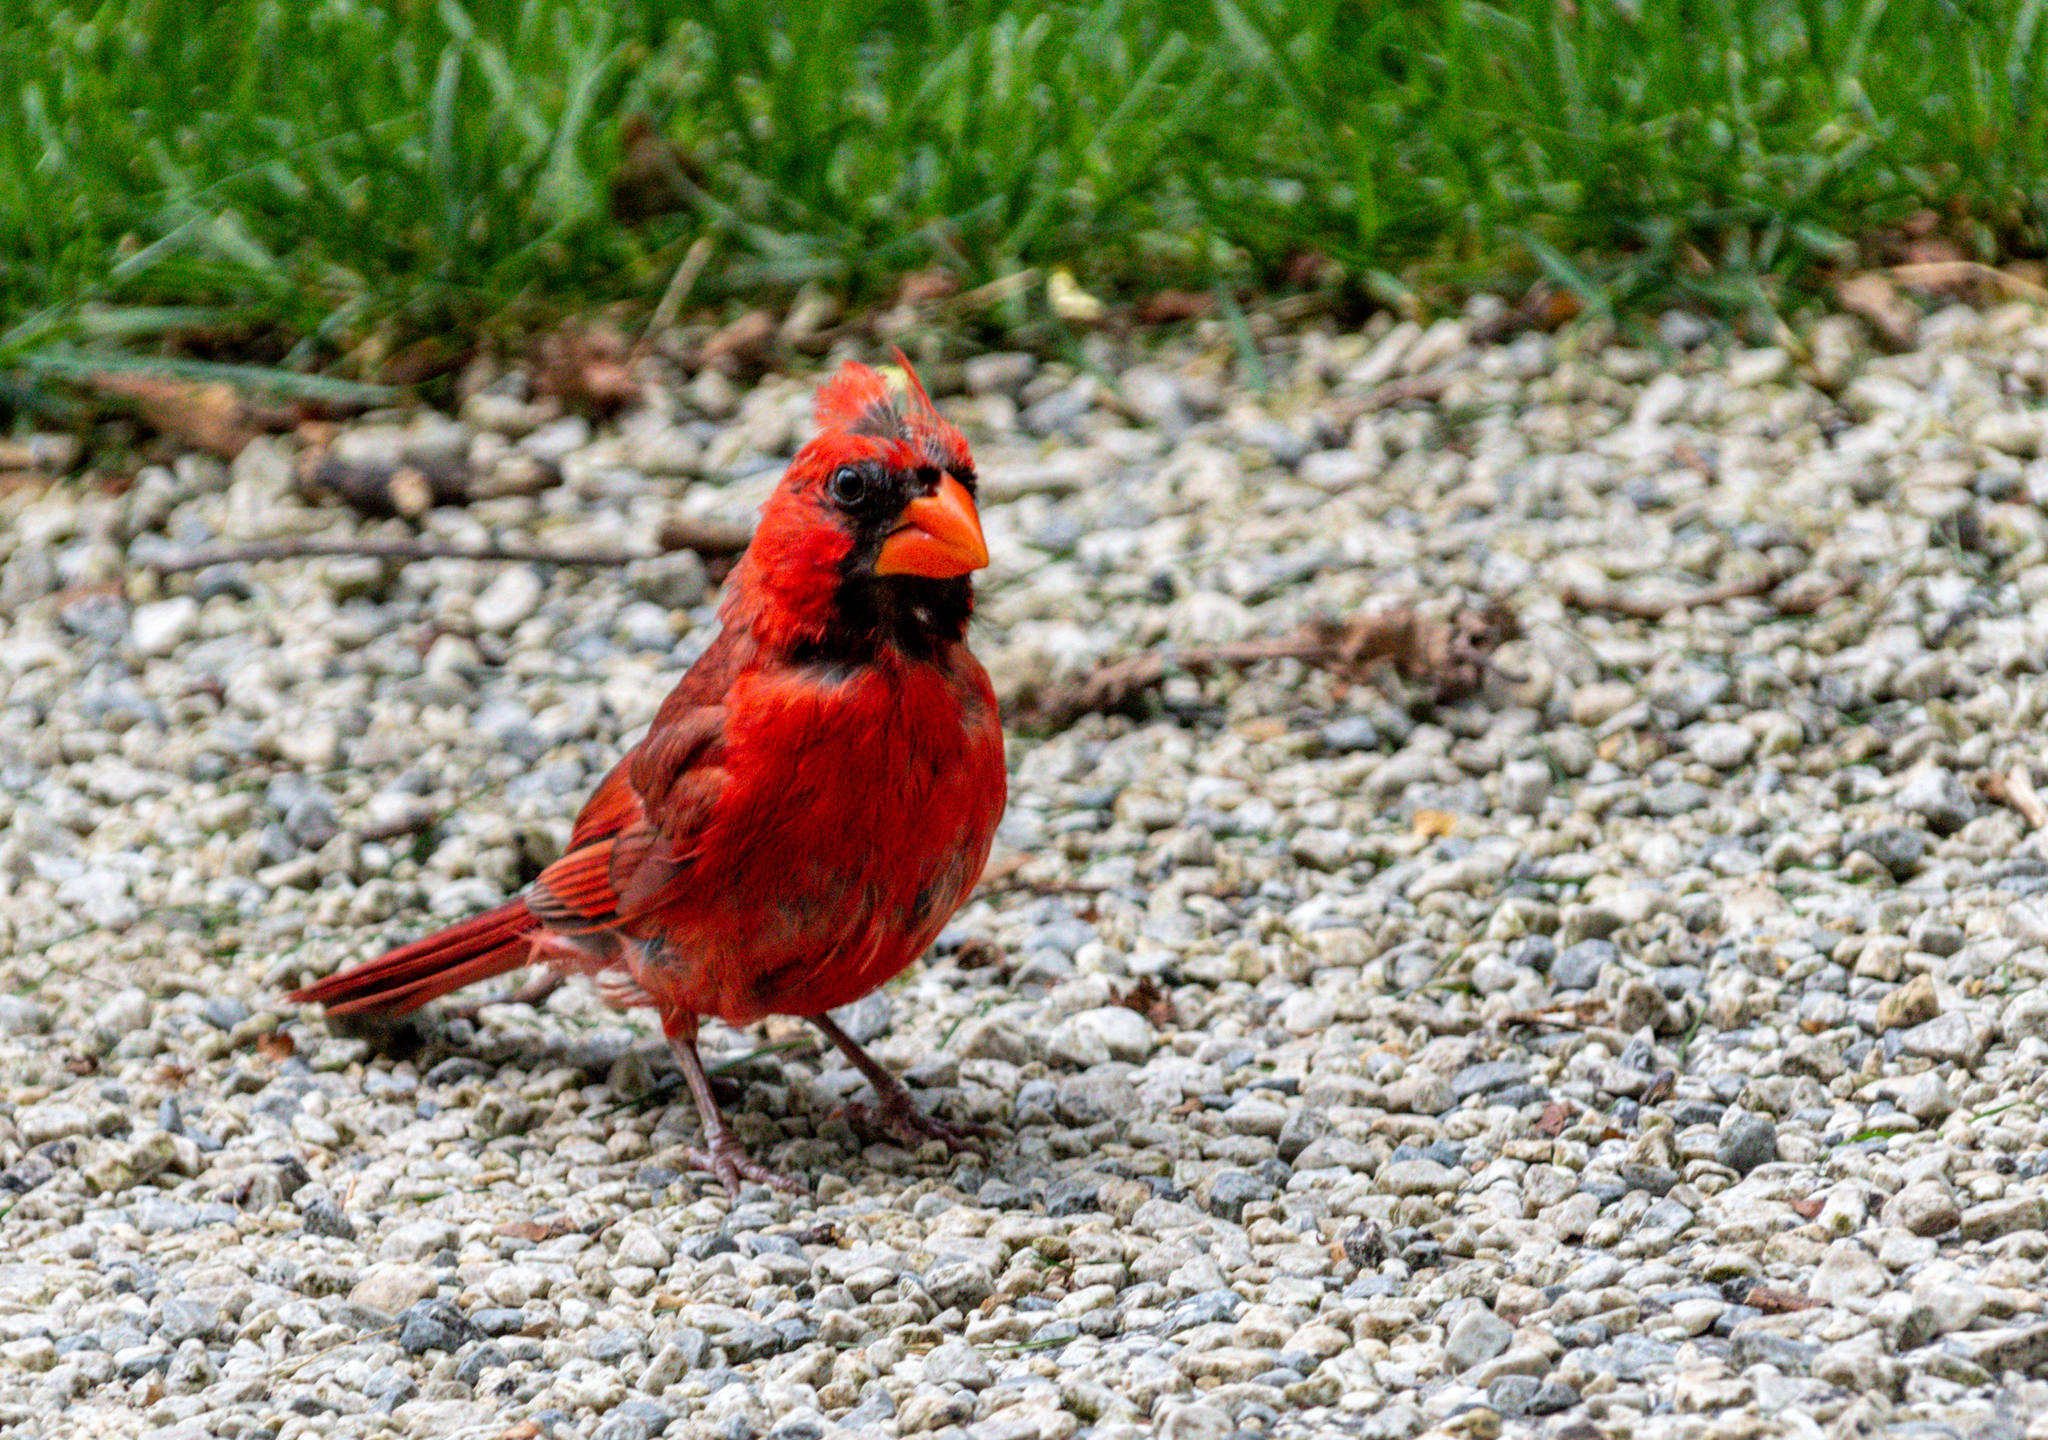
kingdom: Animalia
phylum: Chordata
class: Aves
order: Passeriformes
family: Cardinalidae
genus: Cardinalis
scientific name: Cardinalis cardinalis
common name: Northern cardinal
